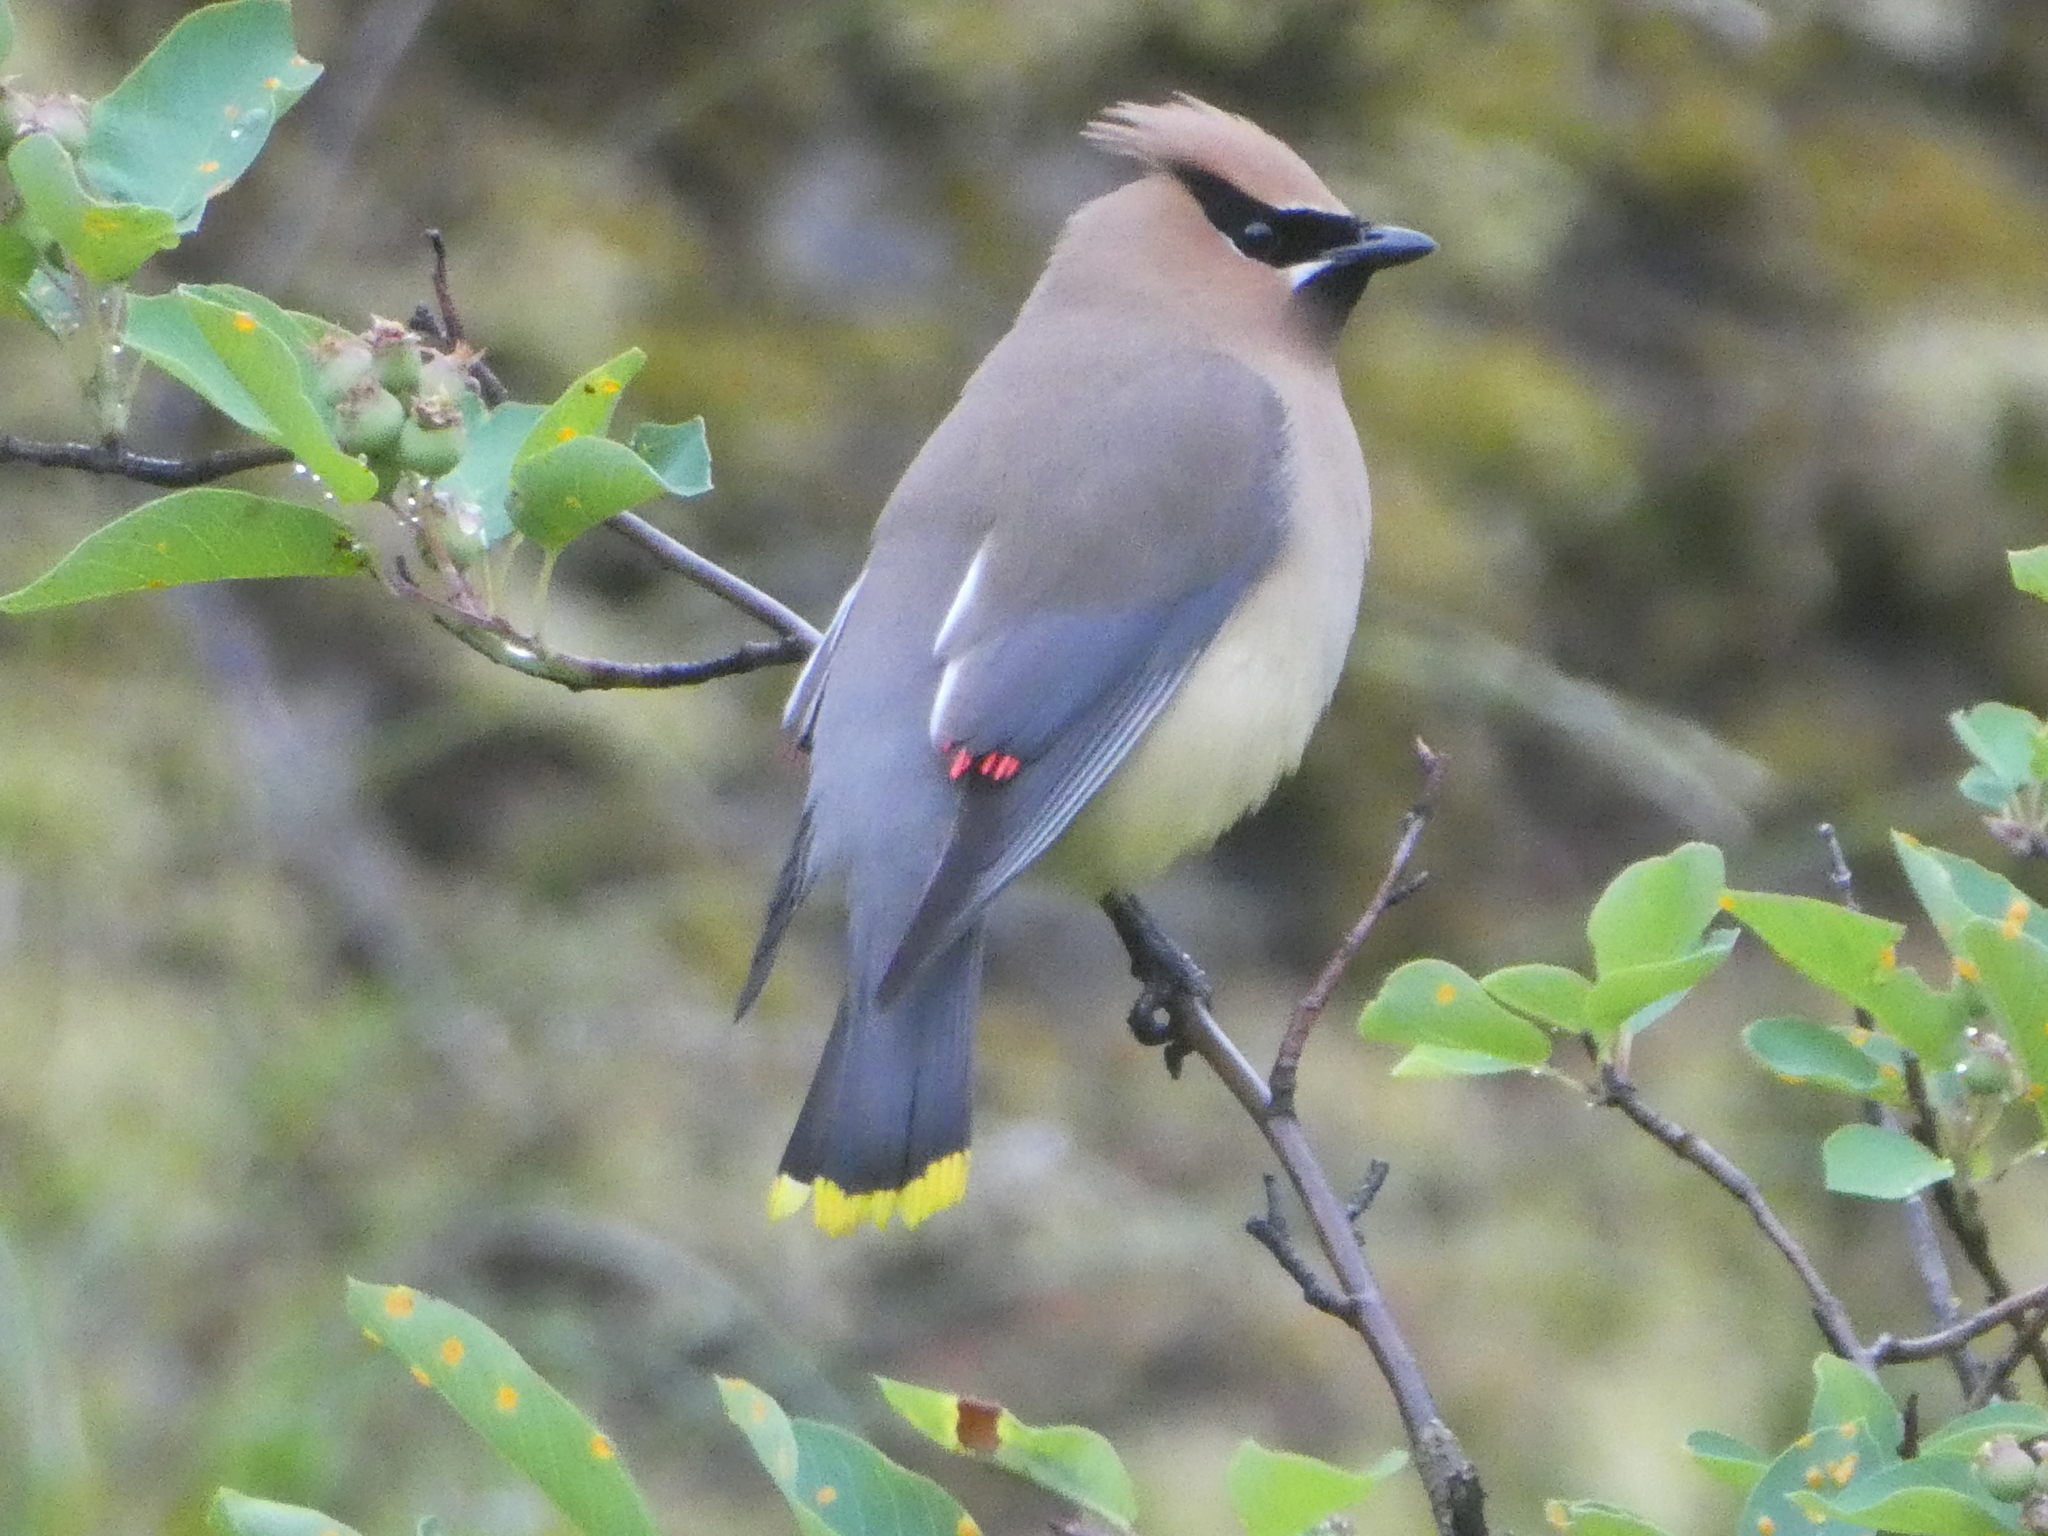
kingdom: Animalia
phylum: Chordata
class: Aves
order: Passeriformes
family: Bombycillidae
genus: Bombycilla
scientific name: Bombycilla cedrorum
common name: Cedar waxwing
